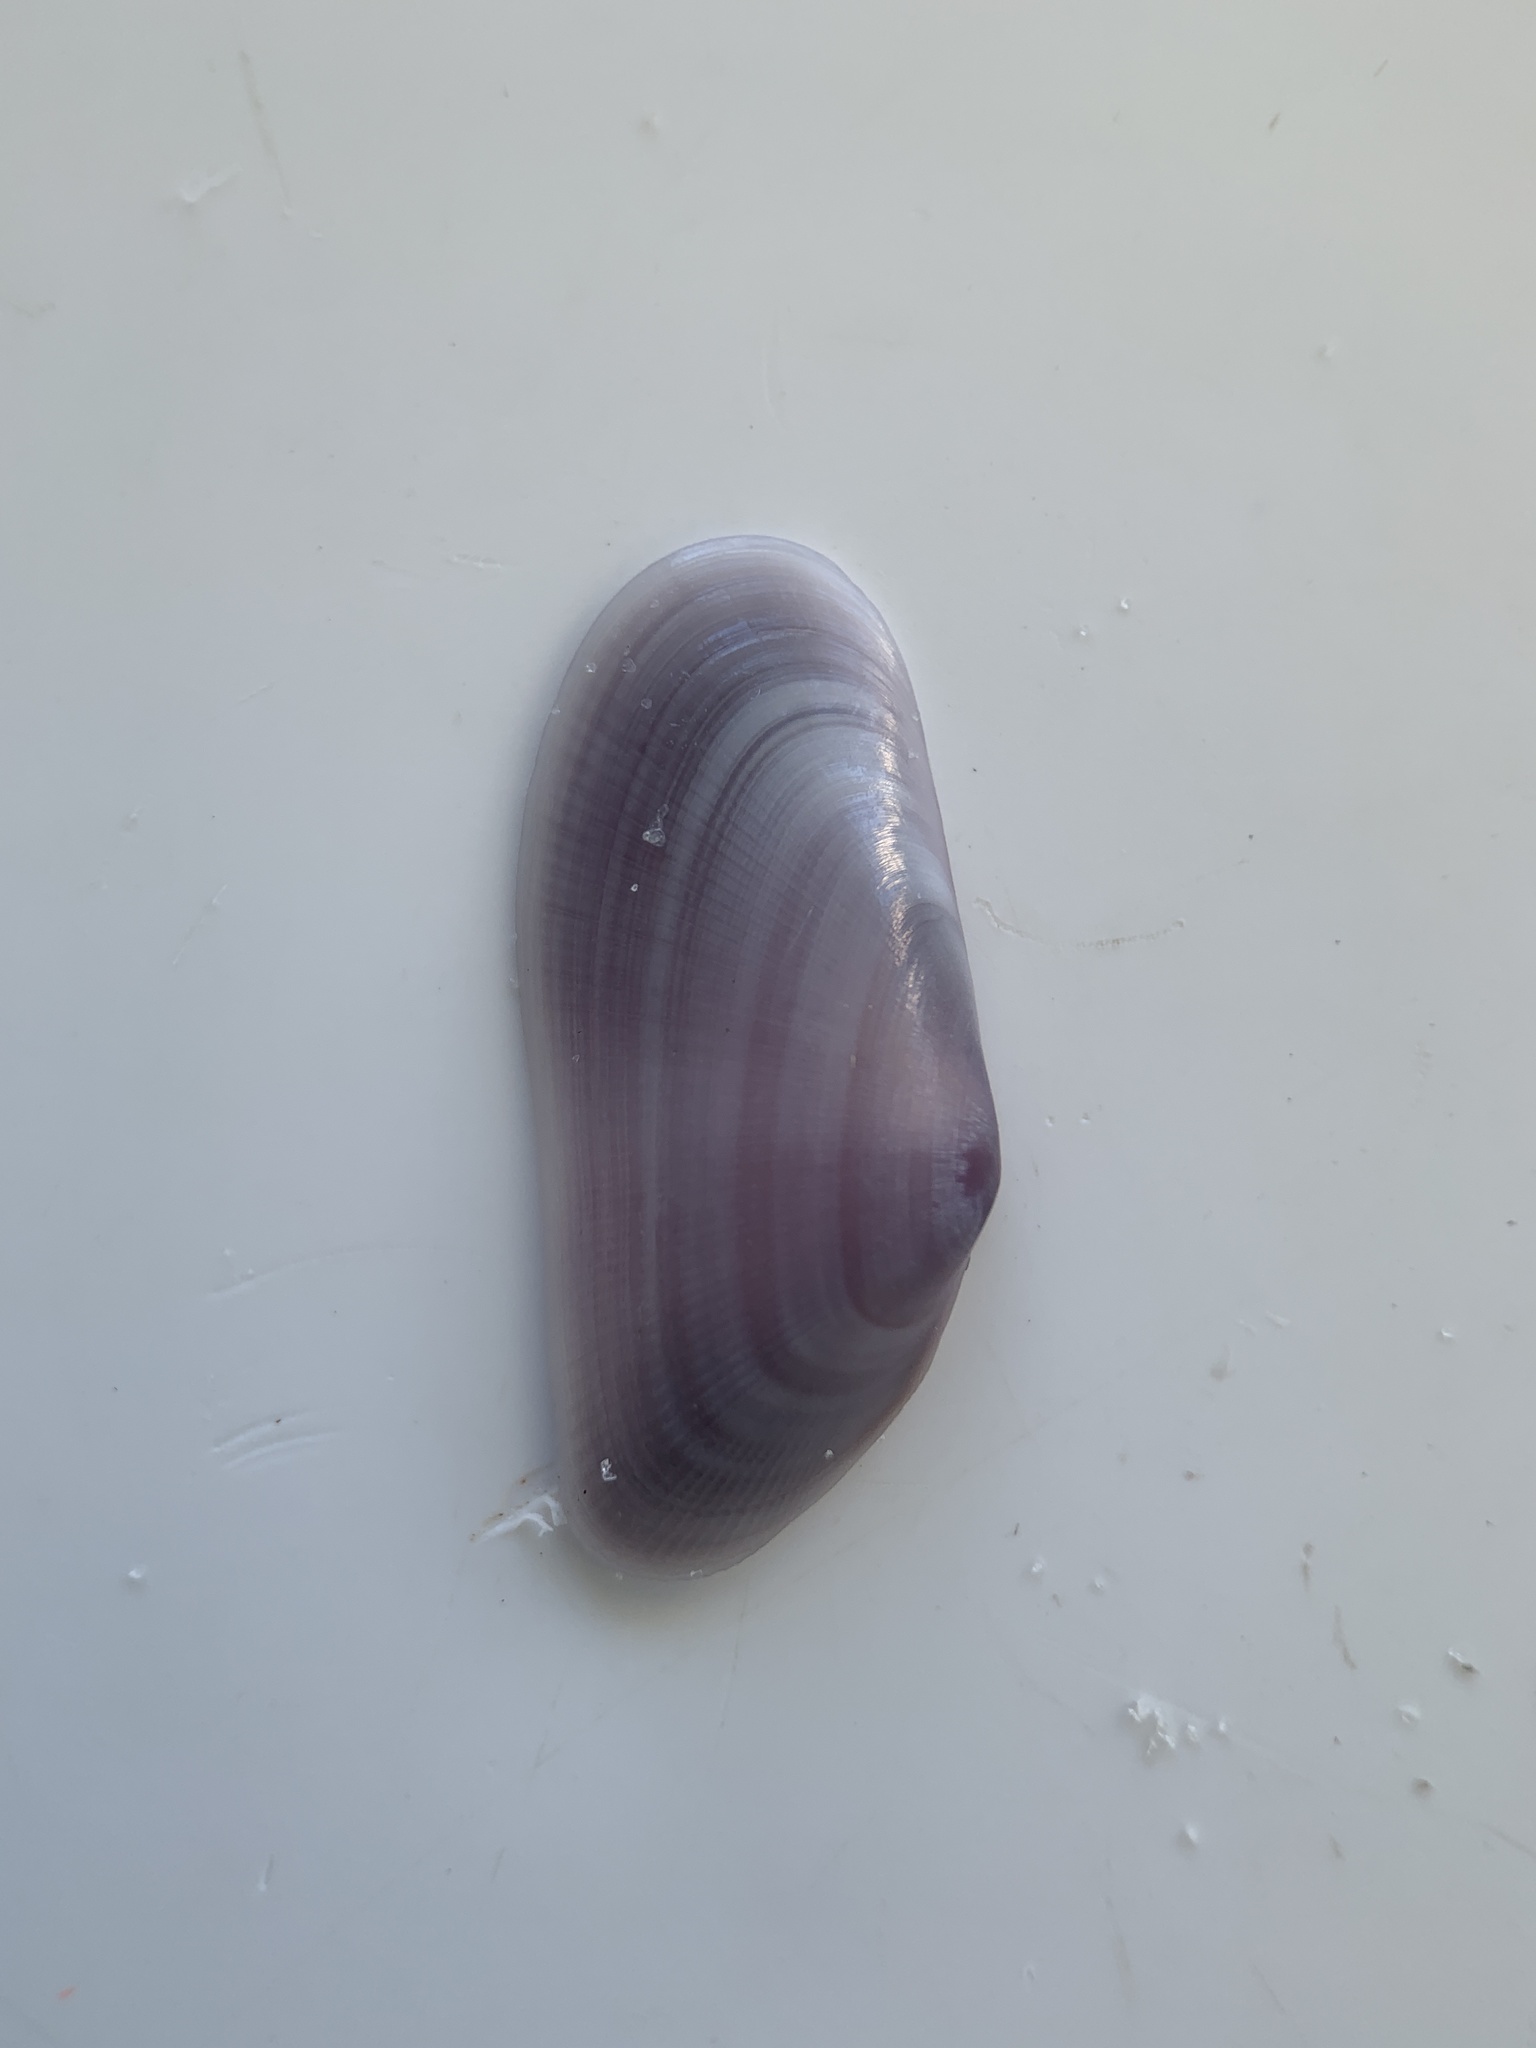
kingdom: Animalia
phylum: Mollusca
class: Bivalvia
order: Cardiida
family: Donacidae
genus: Donax
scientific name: Donax variabilis
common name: Butterfly shell
